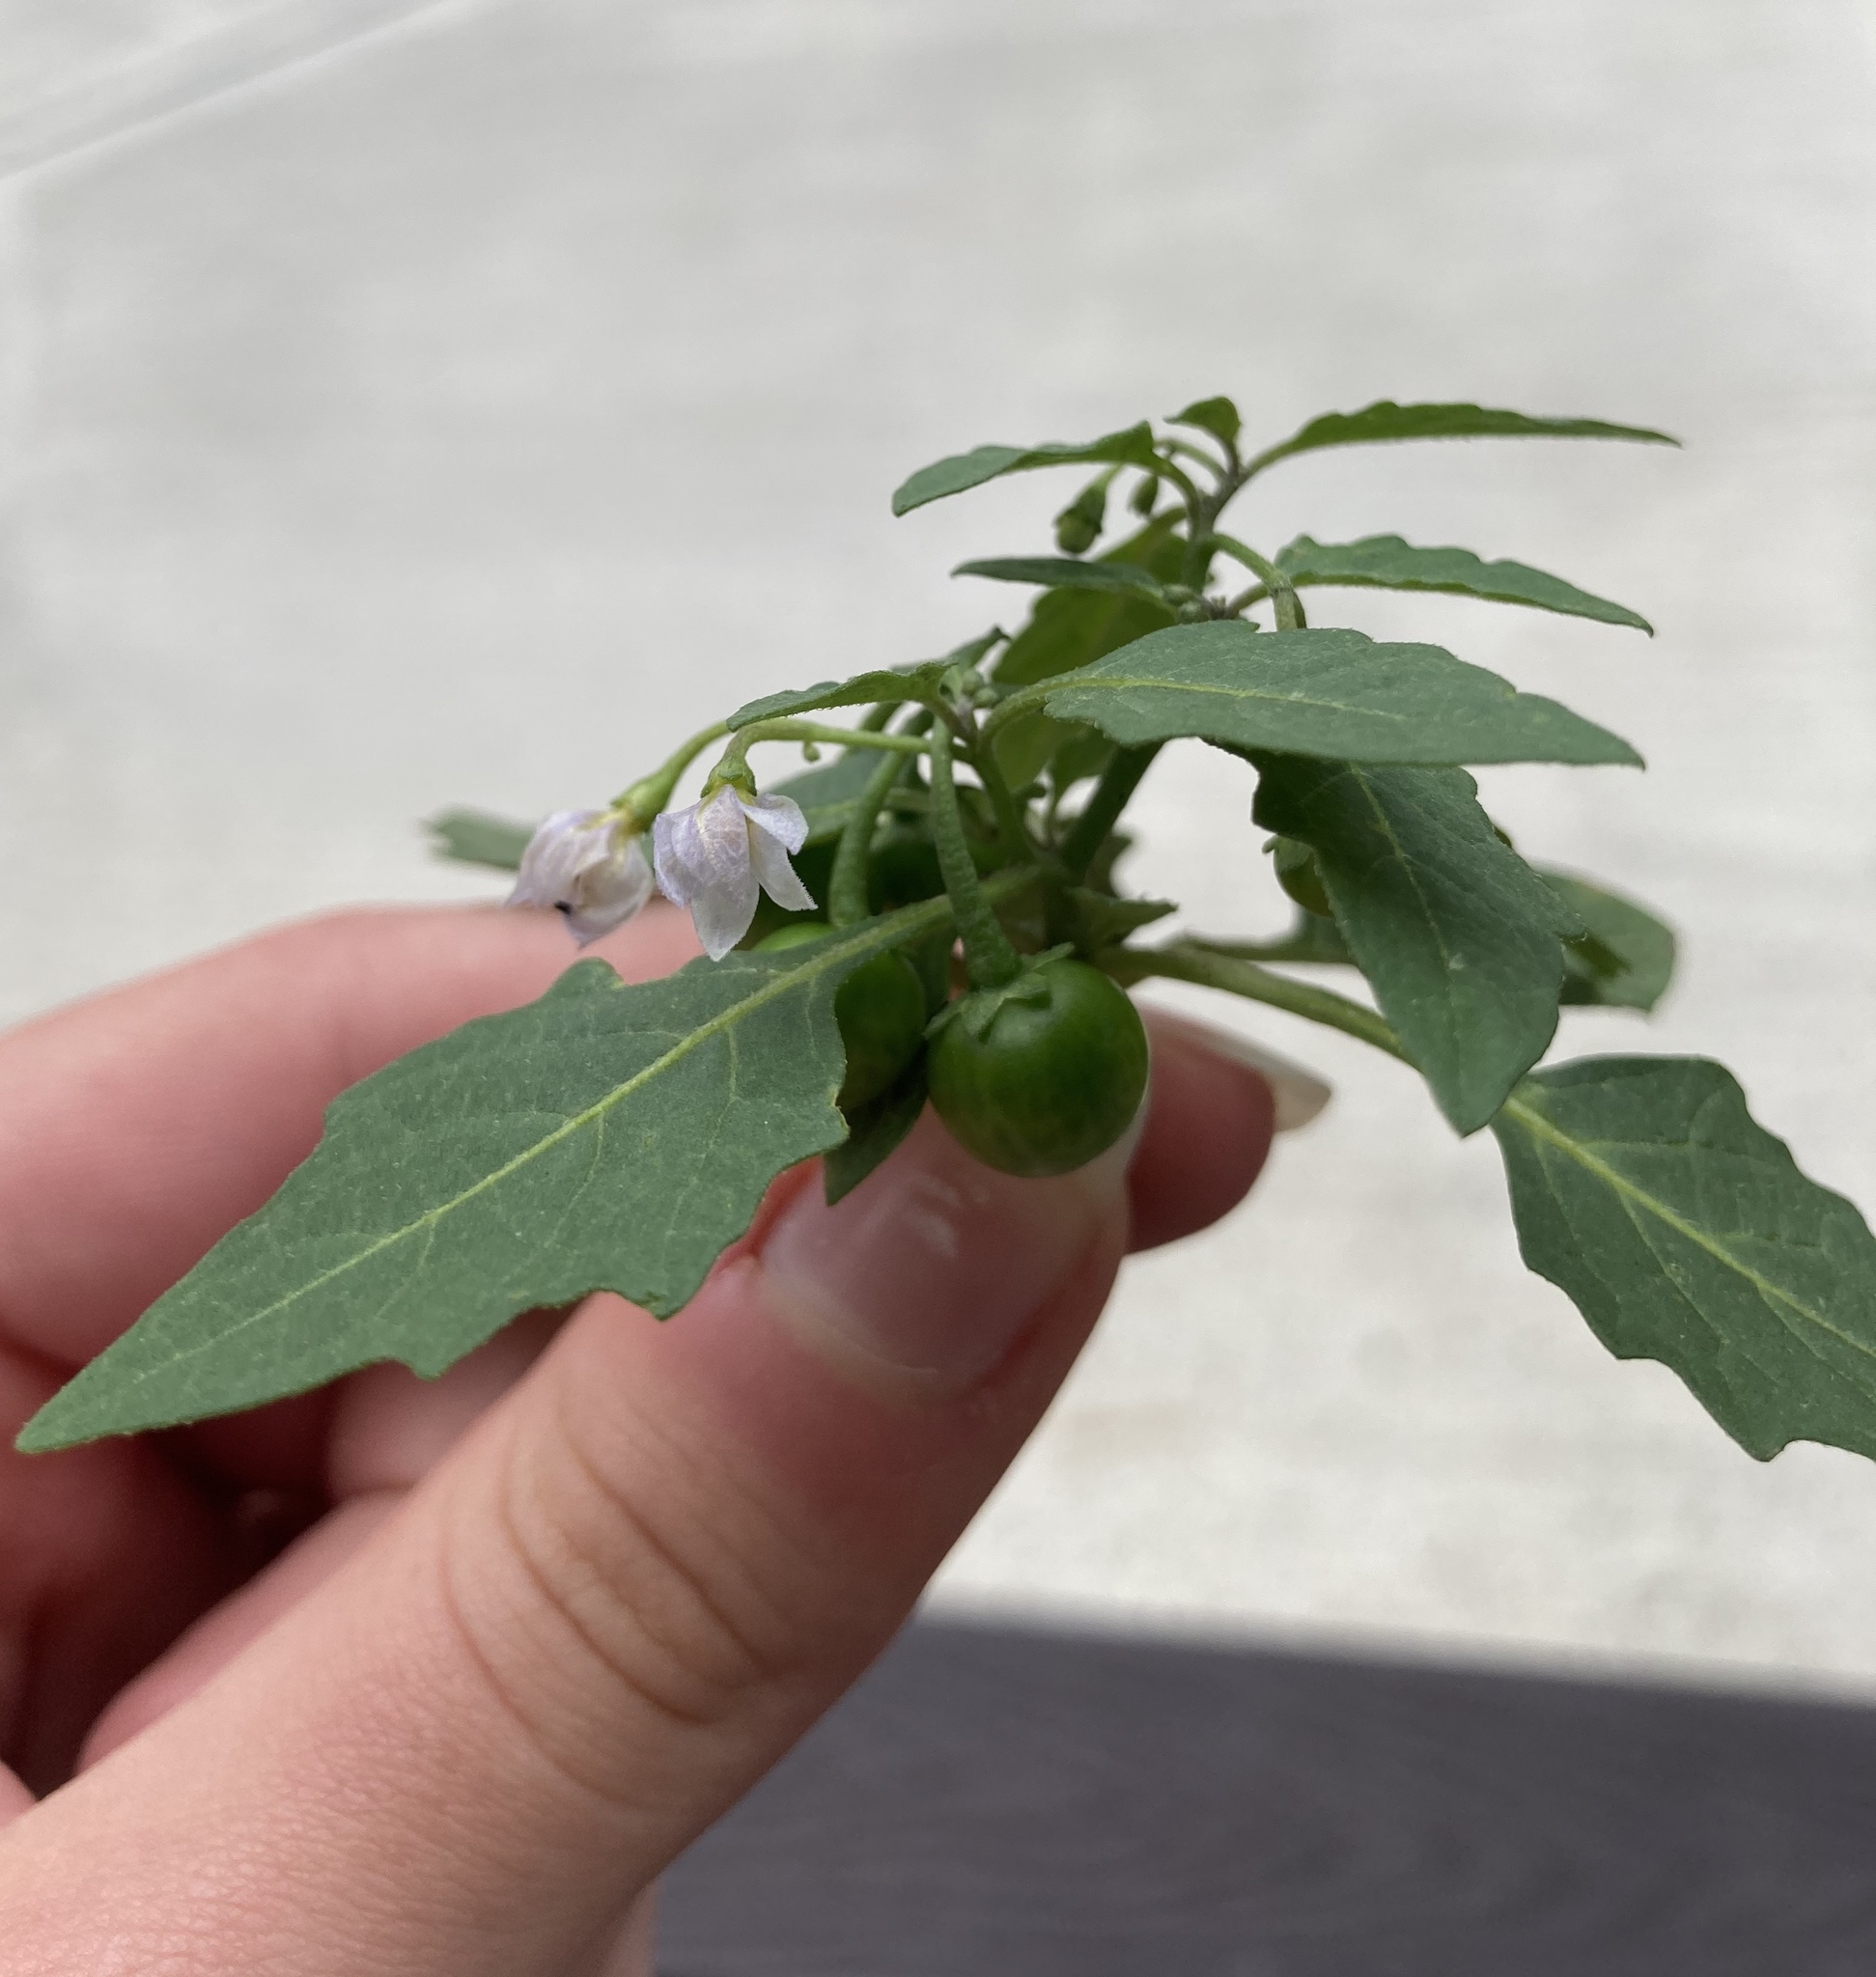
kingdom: Plantae
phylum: Tracheophyta
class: Magnoliopsida
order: Solanales
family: Solanaceae
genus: Solanum
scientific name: Solanum emulans
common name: Eastern black nightshade
